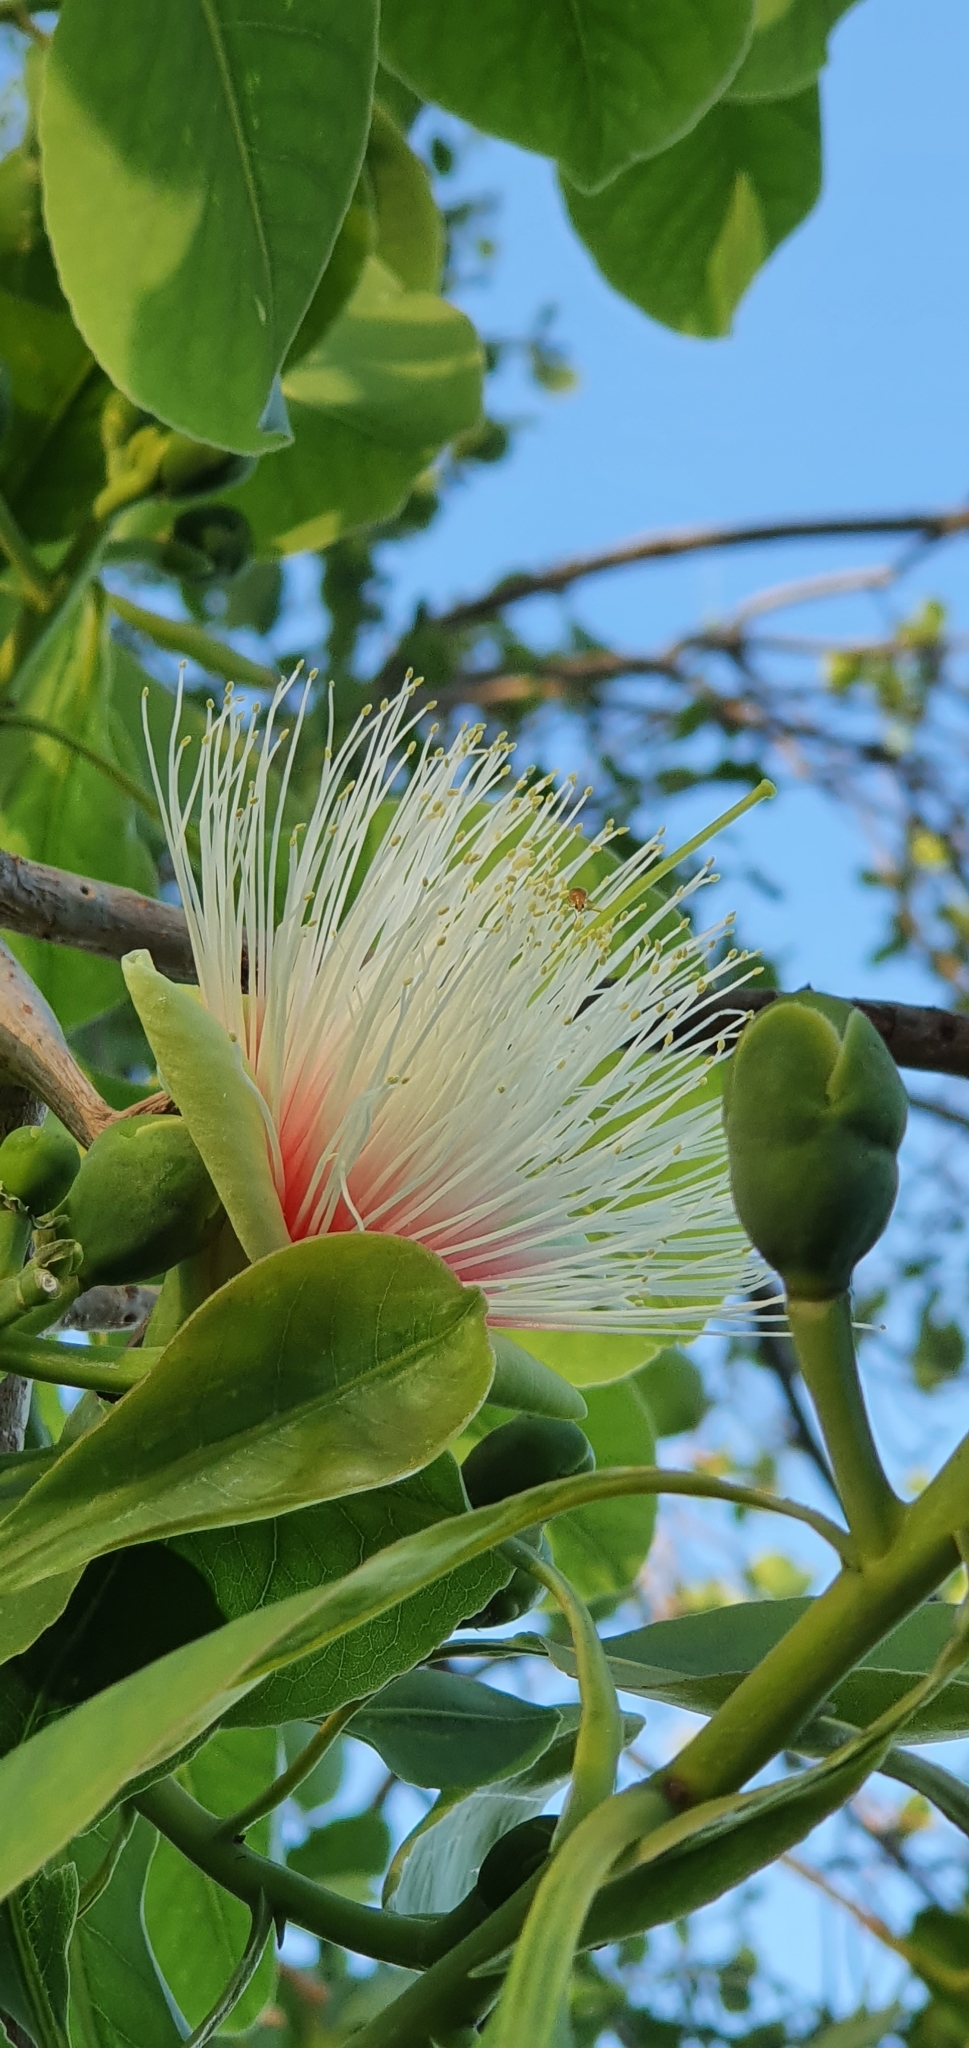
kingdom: Plantae
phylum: Tracheophyta
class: Magnoliopsida
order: Ericales
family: Lecythidaceae
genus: Planchonia
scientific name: Planchonia careya
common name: Cockatoo-apple
